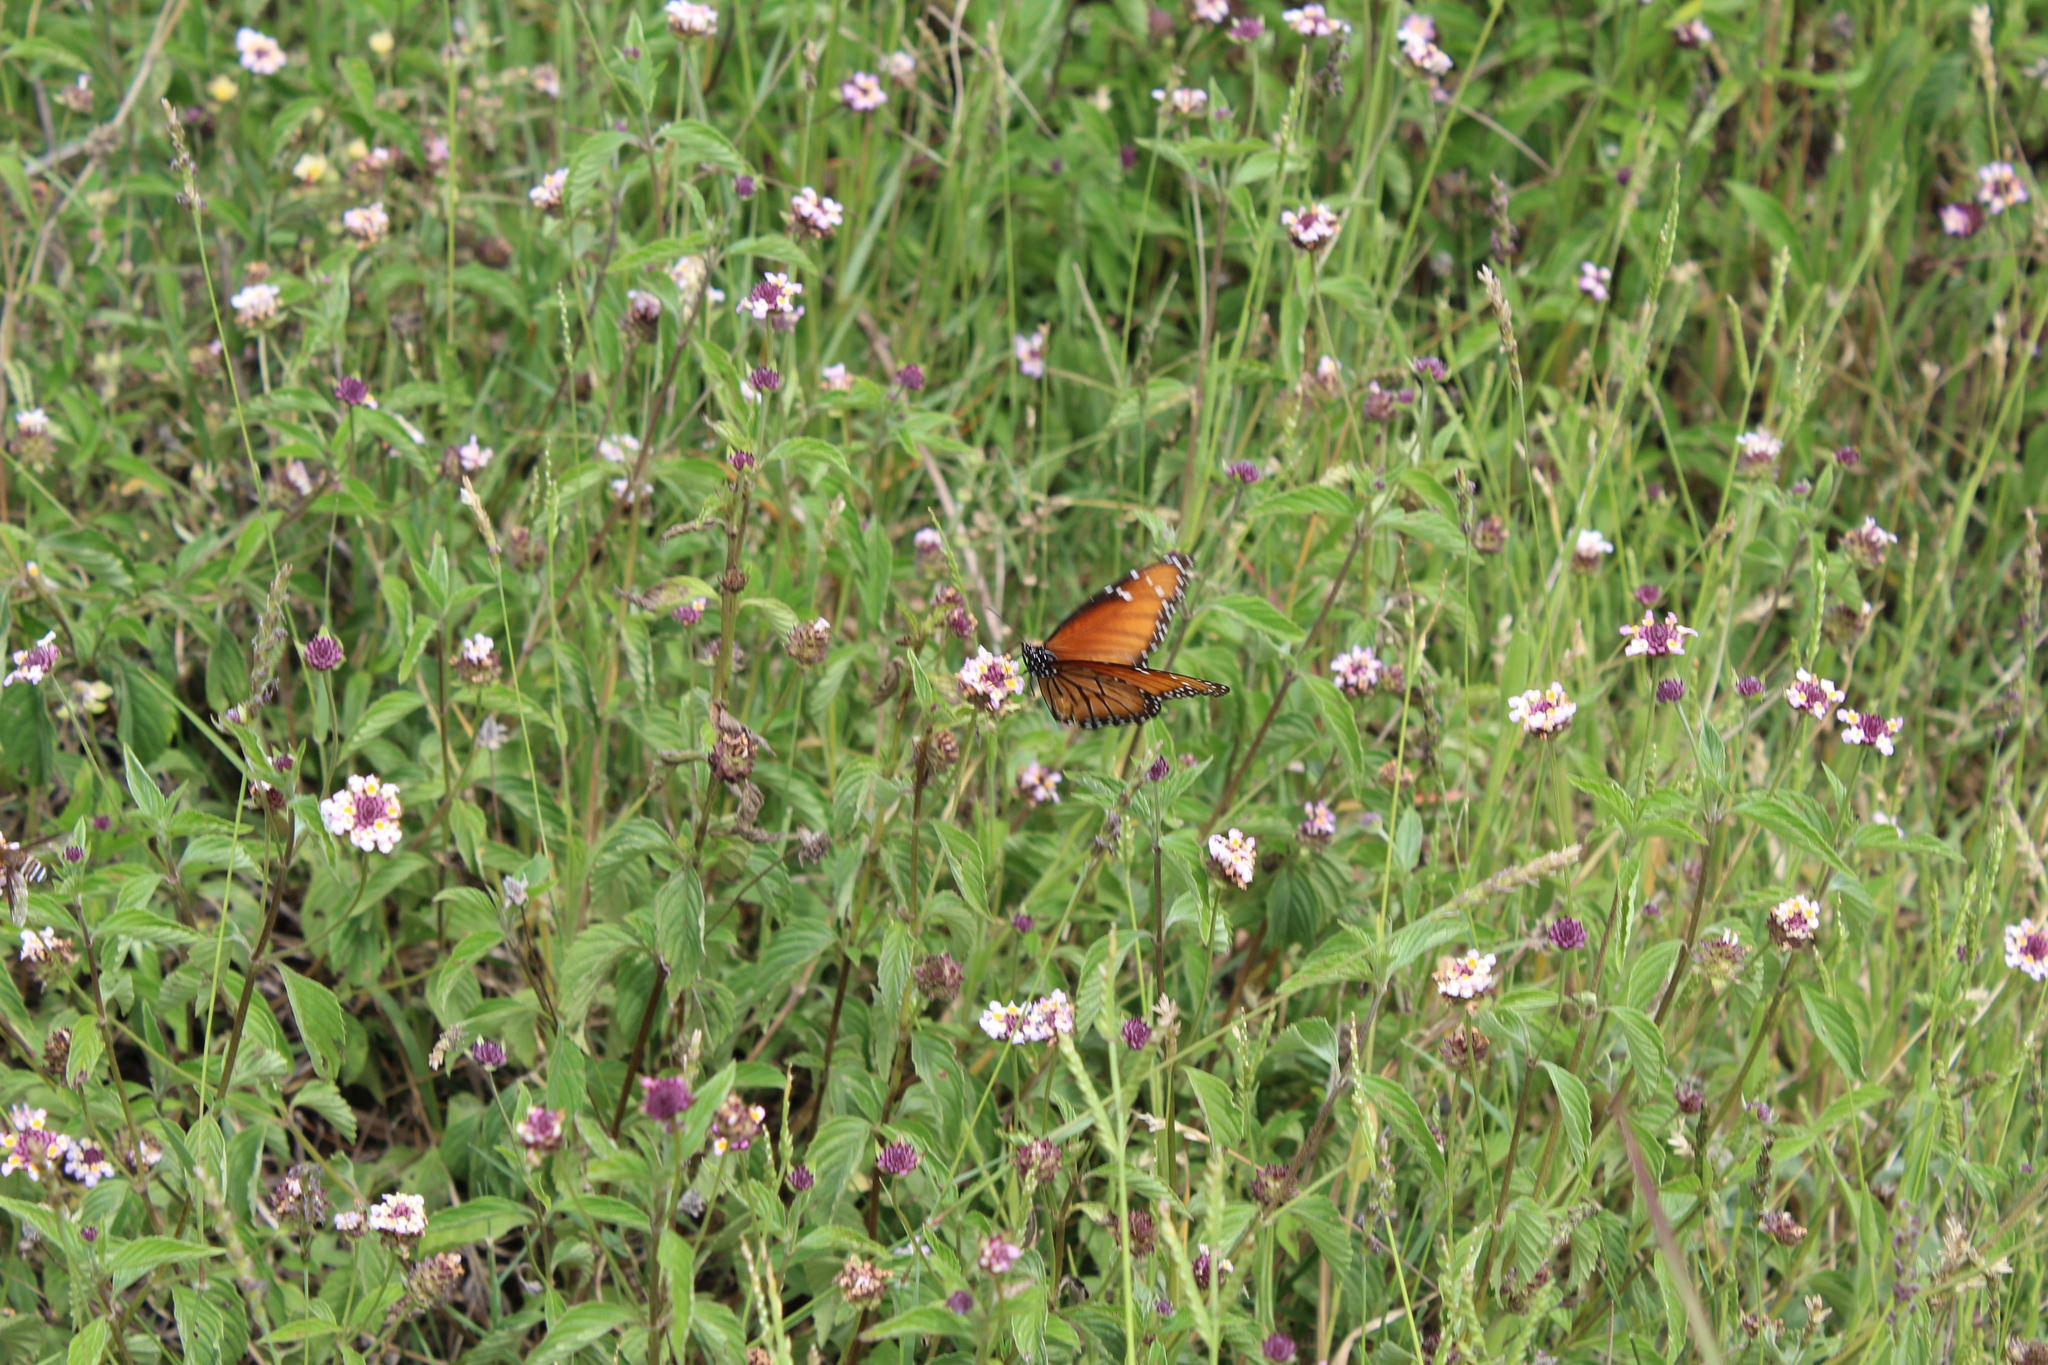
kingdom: Animalia
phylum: Arthropoda
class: Insecta
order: Lepidoptera
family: Nymphalidae
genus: Danaus
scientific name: Danaus eresimus
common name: Soldier
